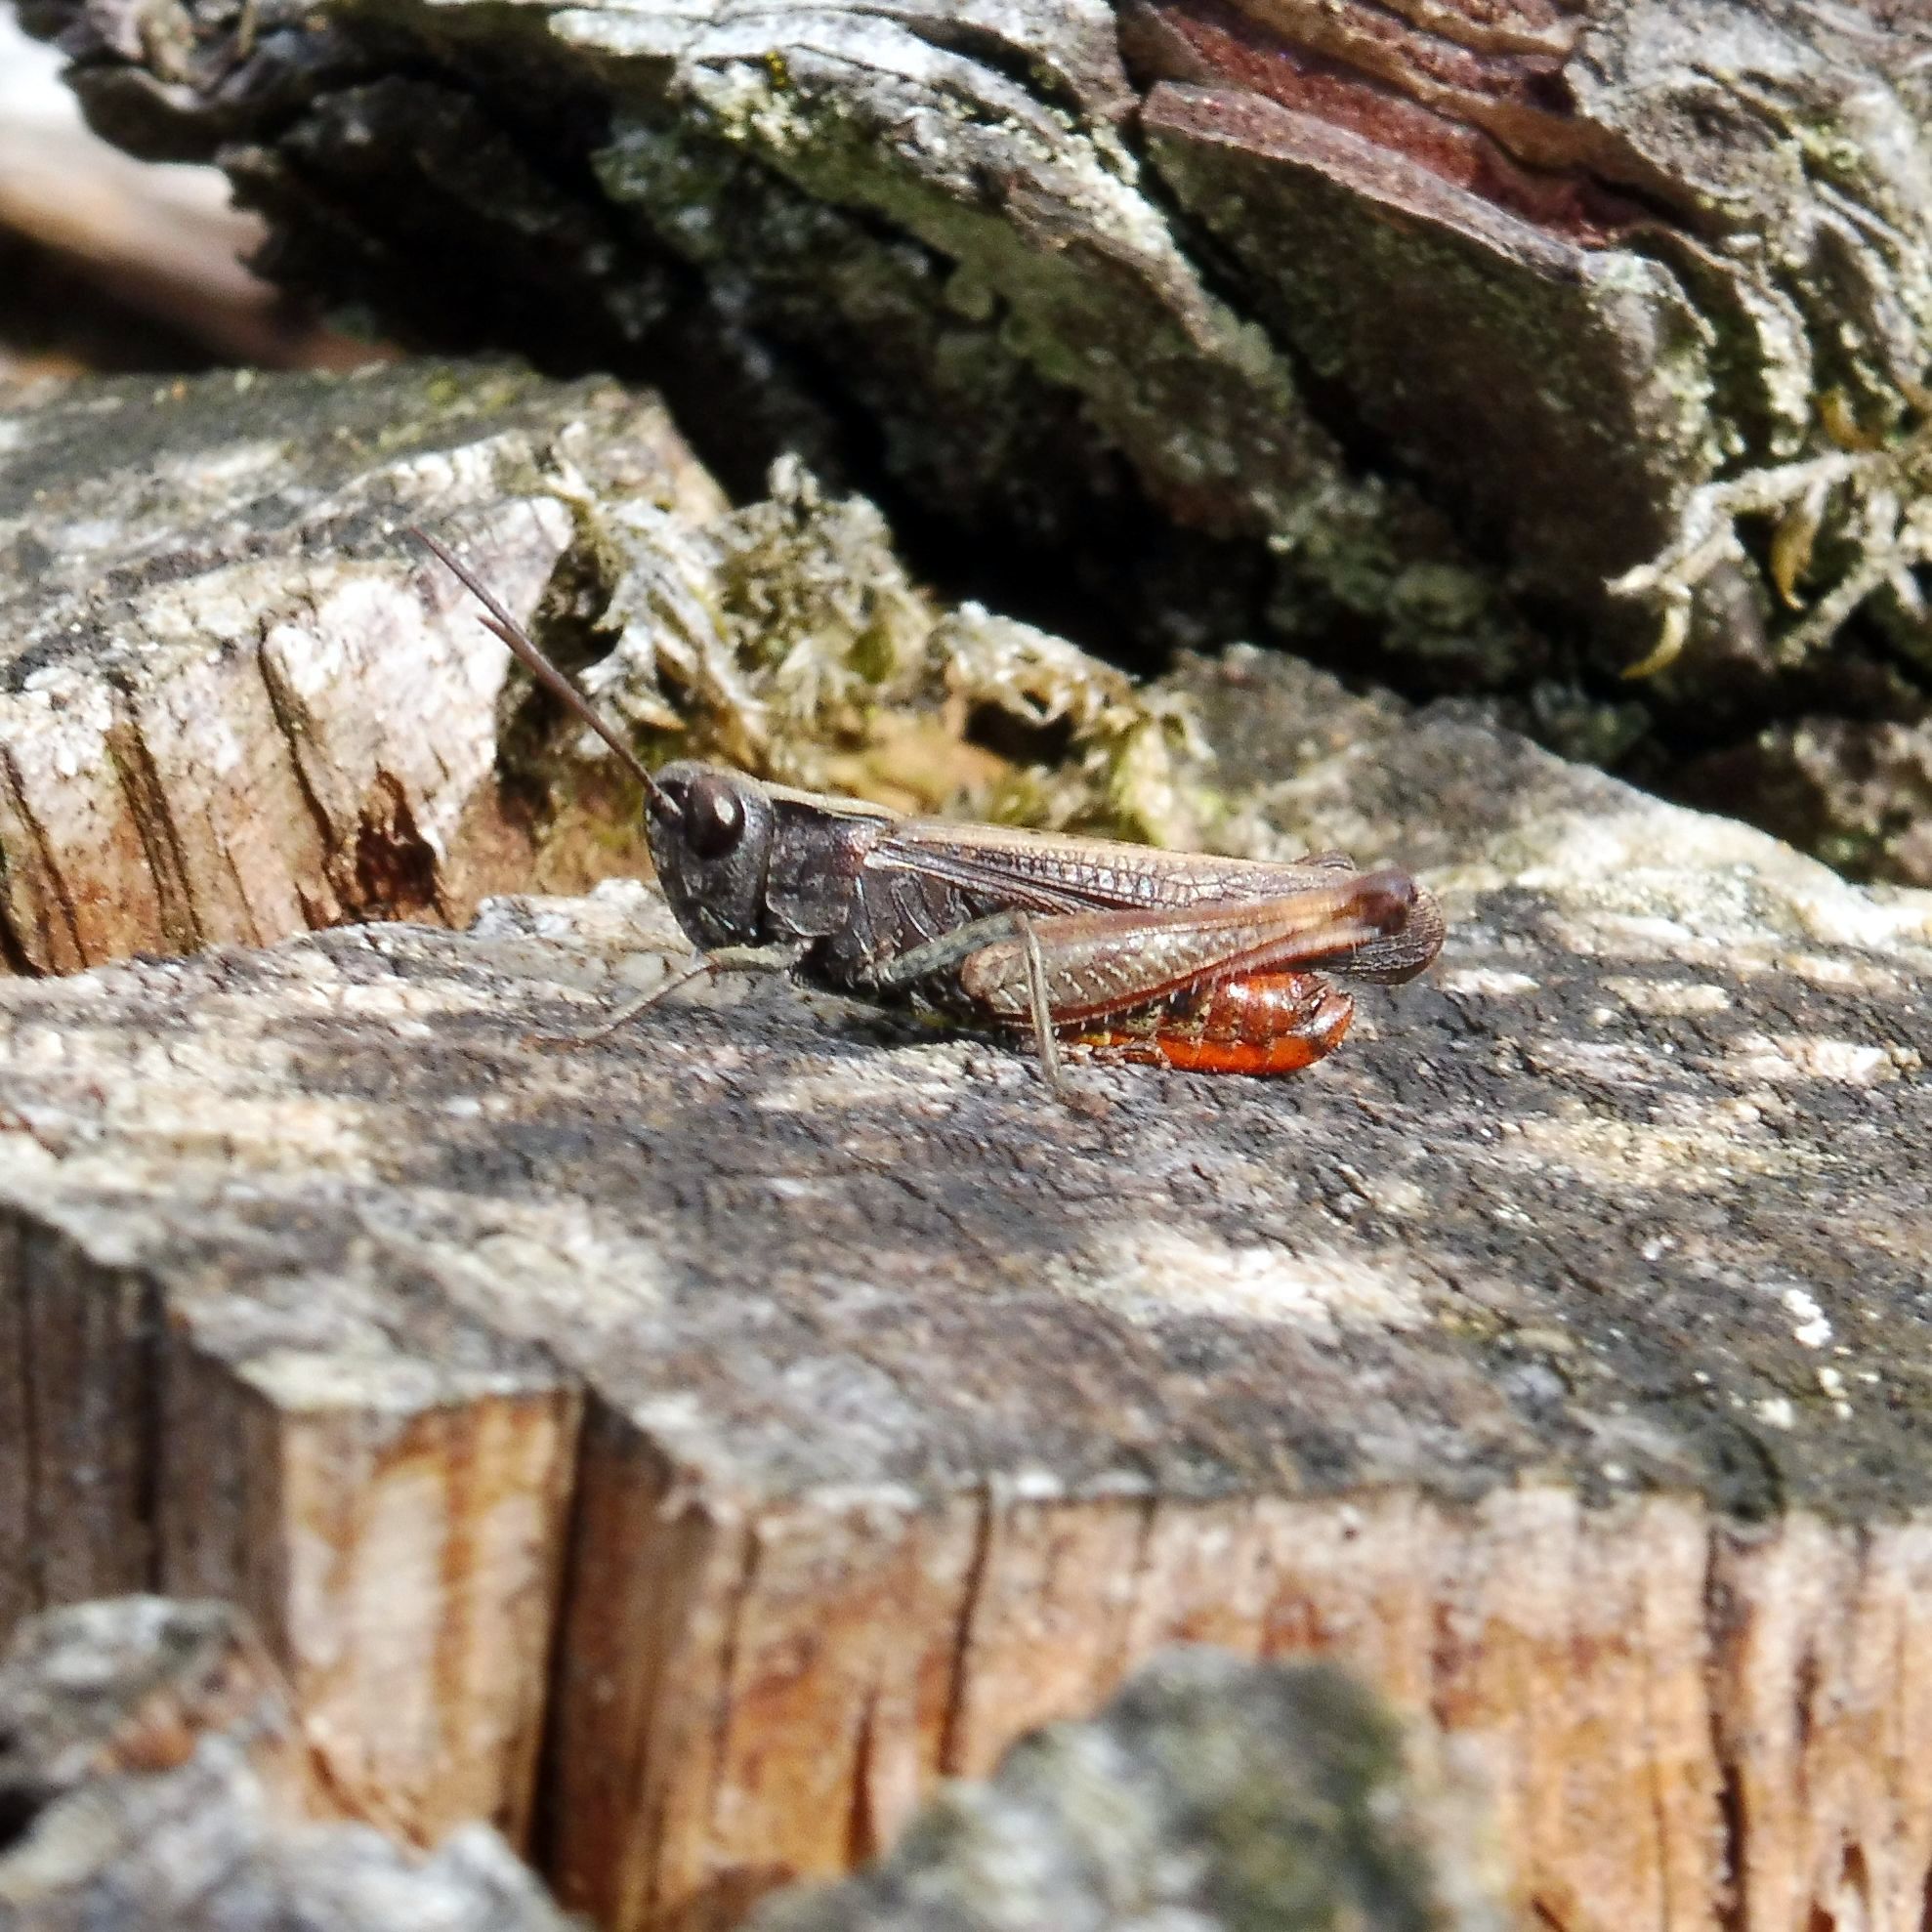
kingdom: Animalia
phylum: Arthropoda
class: Insecta
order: Orthoptera
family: Acrididae
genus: Omocestus
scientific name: Omocestus rufipes
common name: Woodland grasshopper
